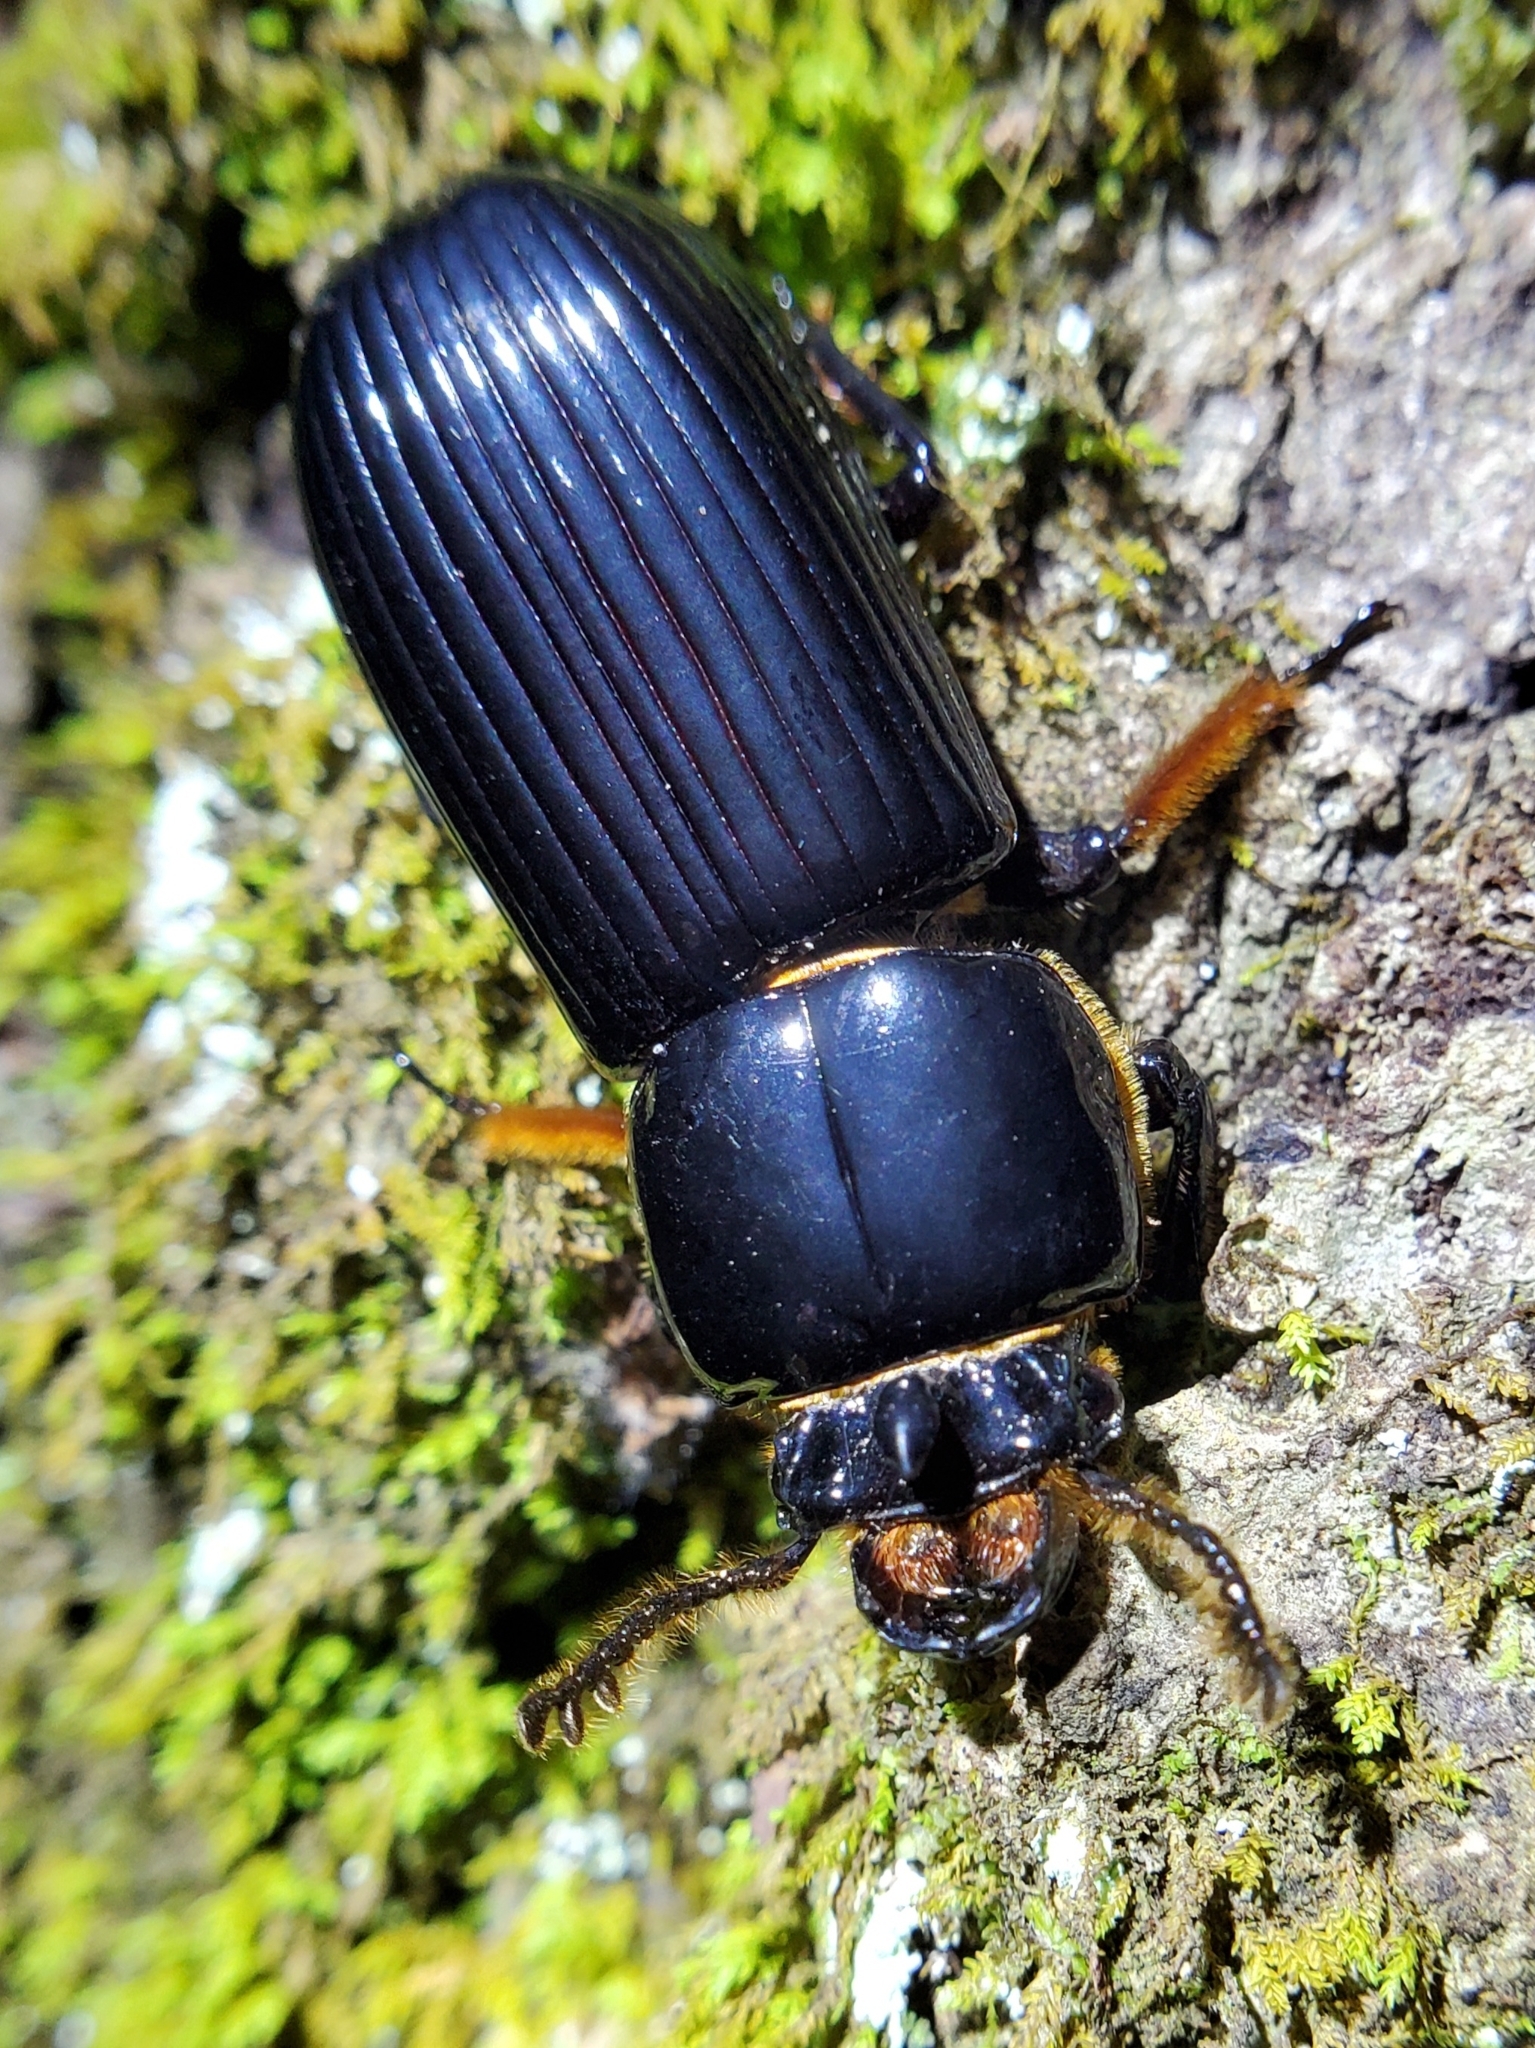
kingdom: Animalia
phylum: Arthropoda
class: Insecta
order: Coleoptera
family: Passalidae
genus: Odontotaenius
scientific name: Odontotaenius disjunctus
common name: Patent leather beetle
